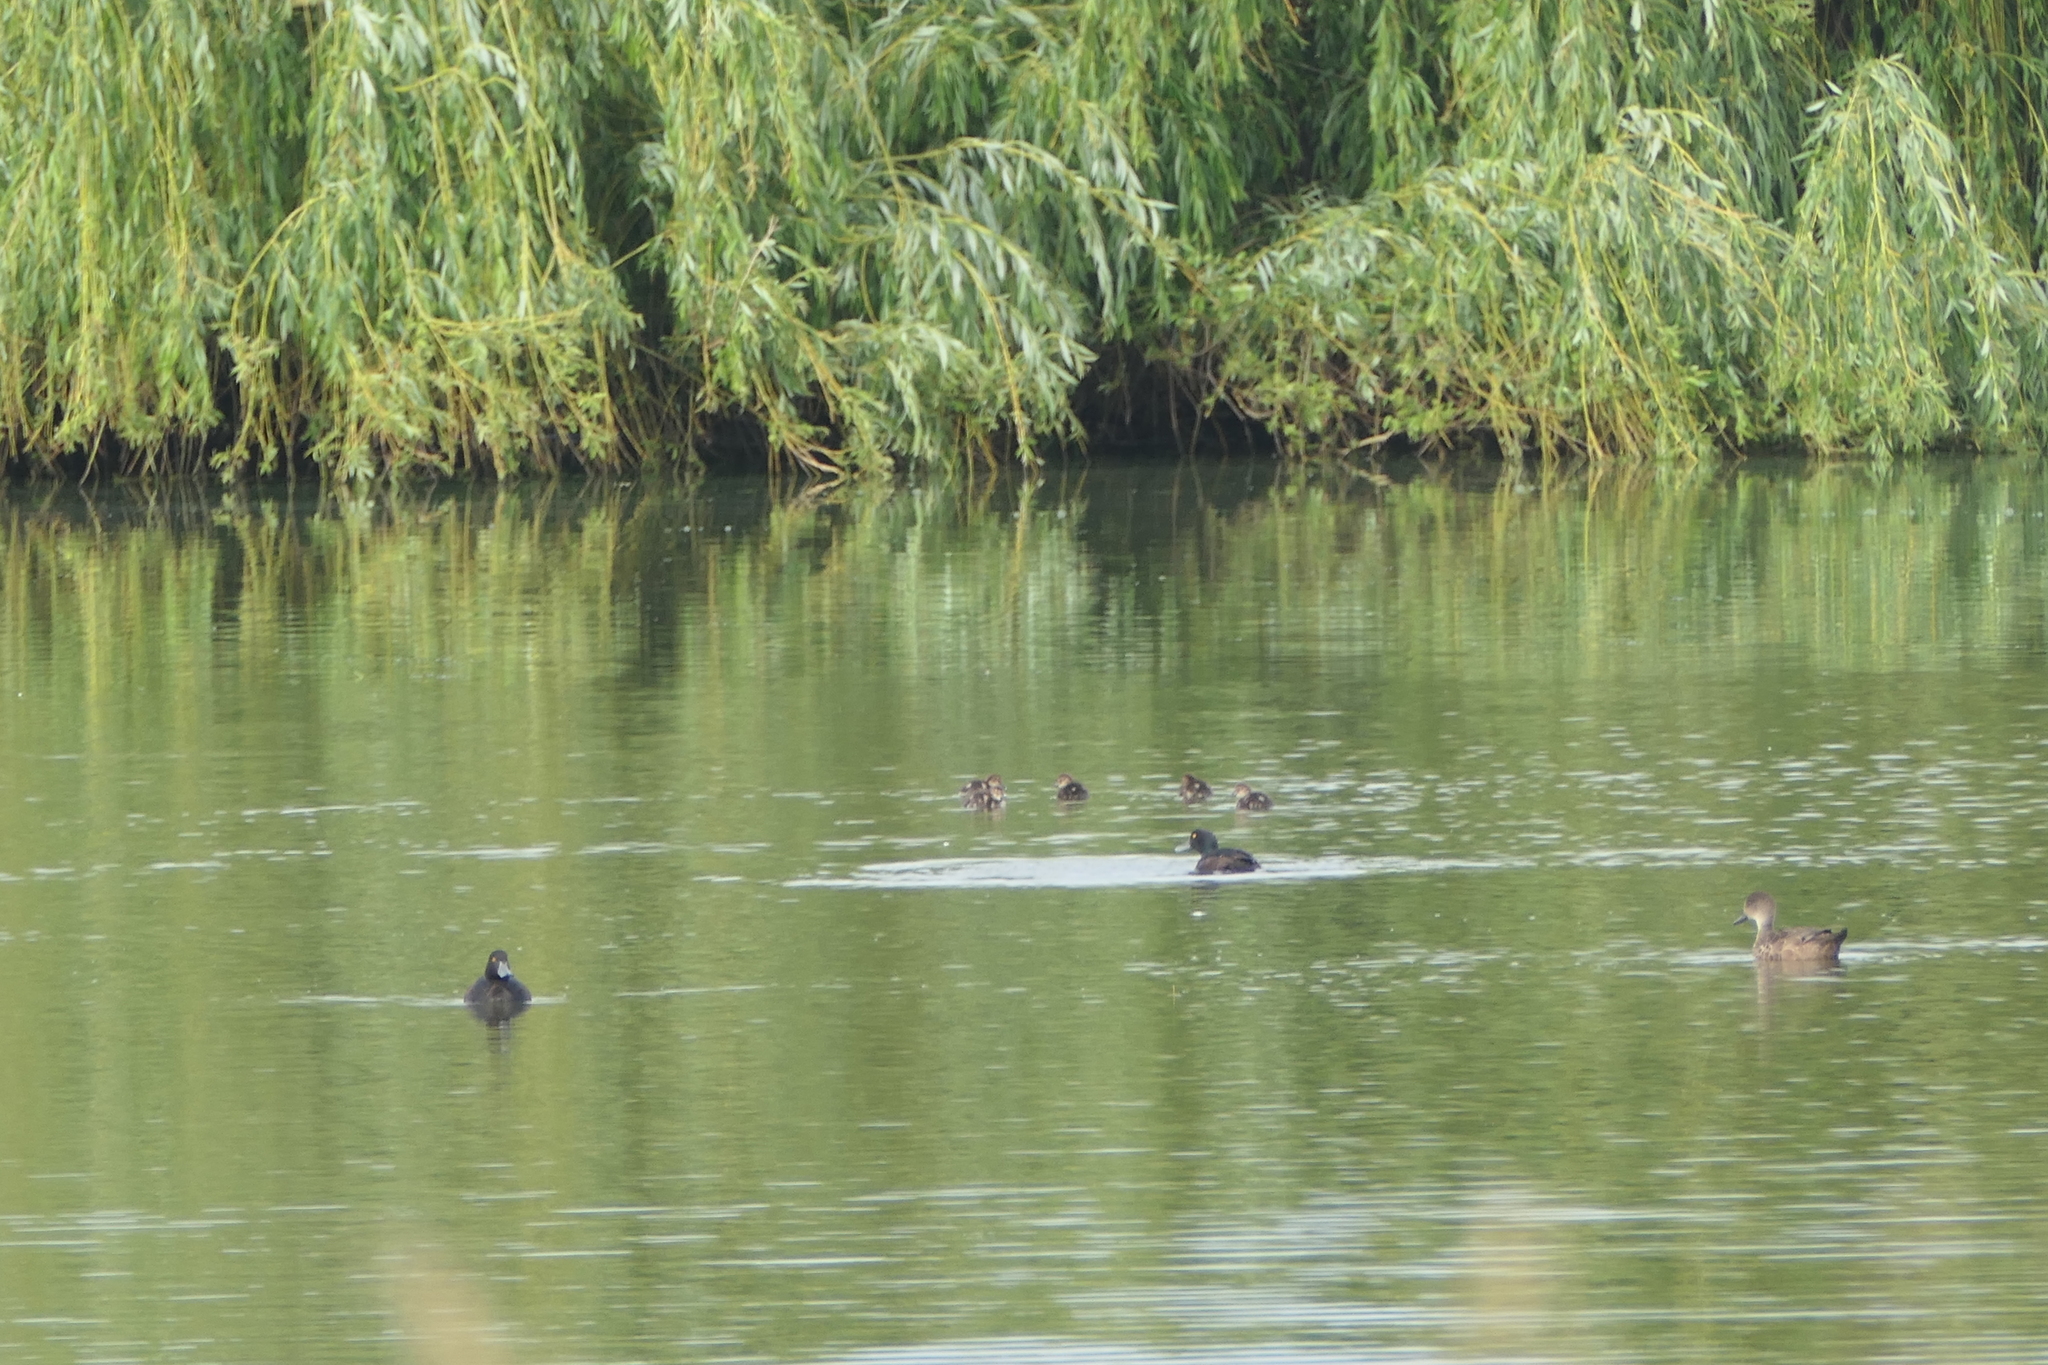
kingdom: Animalia
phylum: Chordata
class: Aves
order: Anseriformes
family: Anatidae
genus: Anas
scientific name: Anas gracilis
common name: Grey teal
